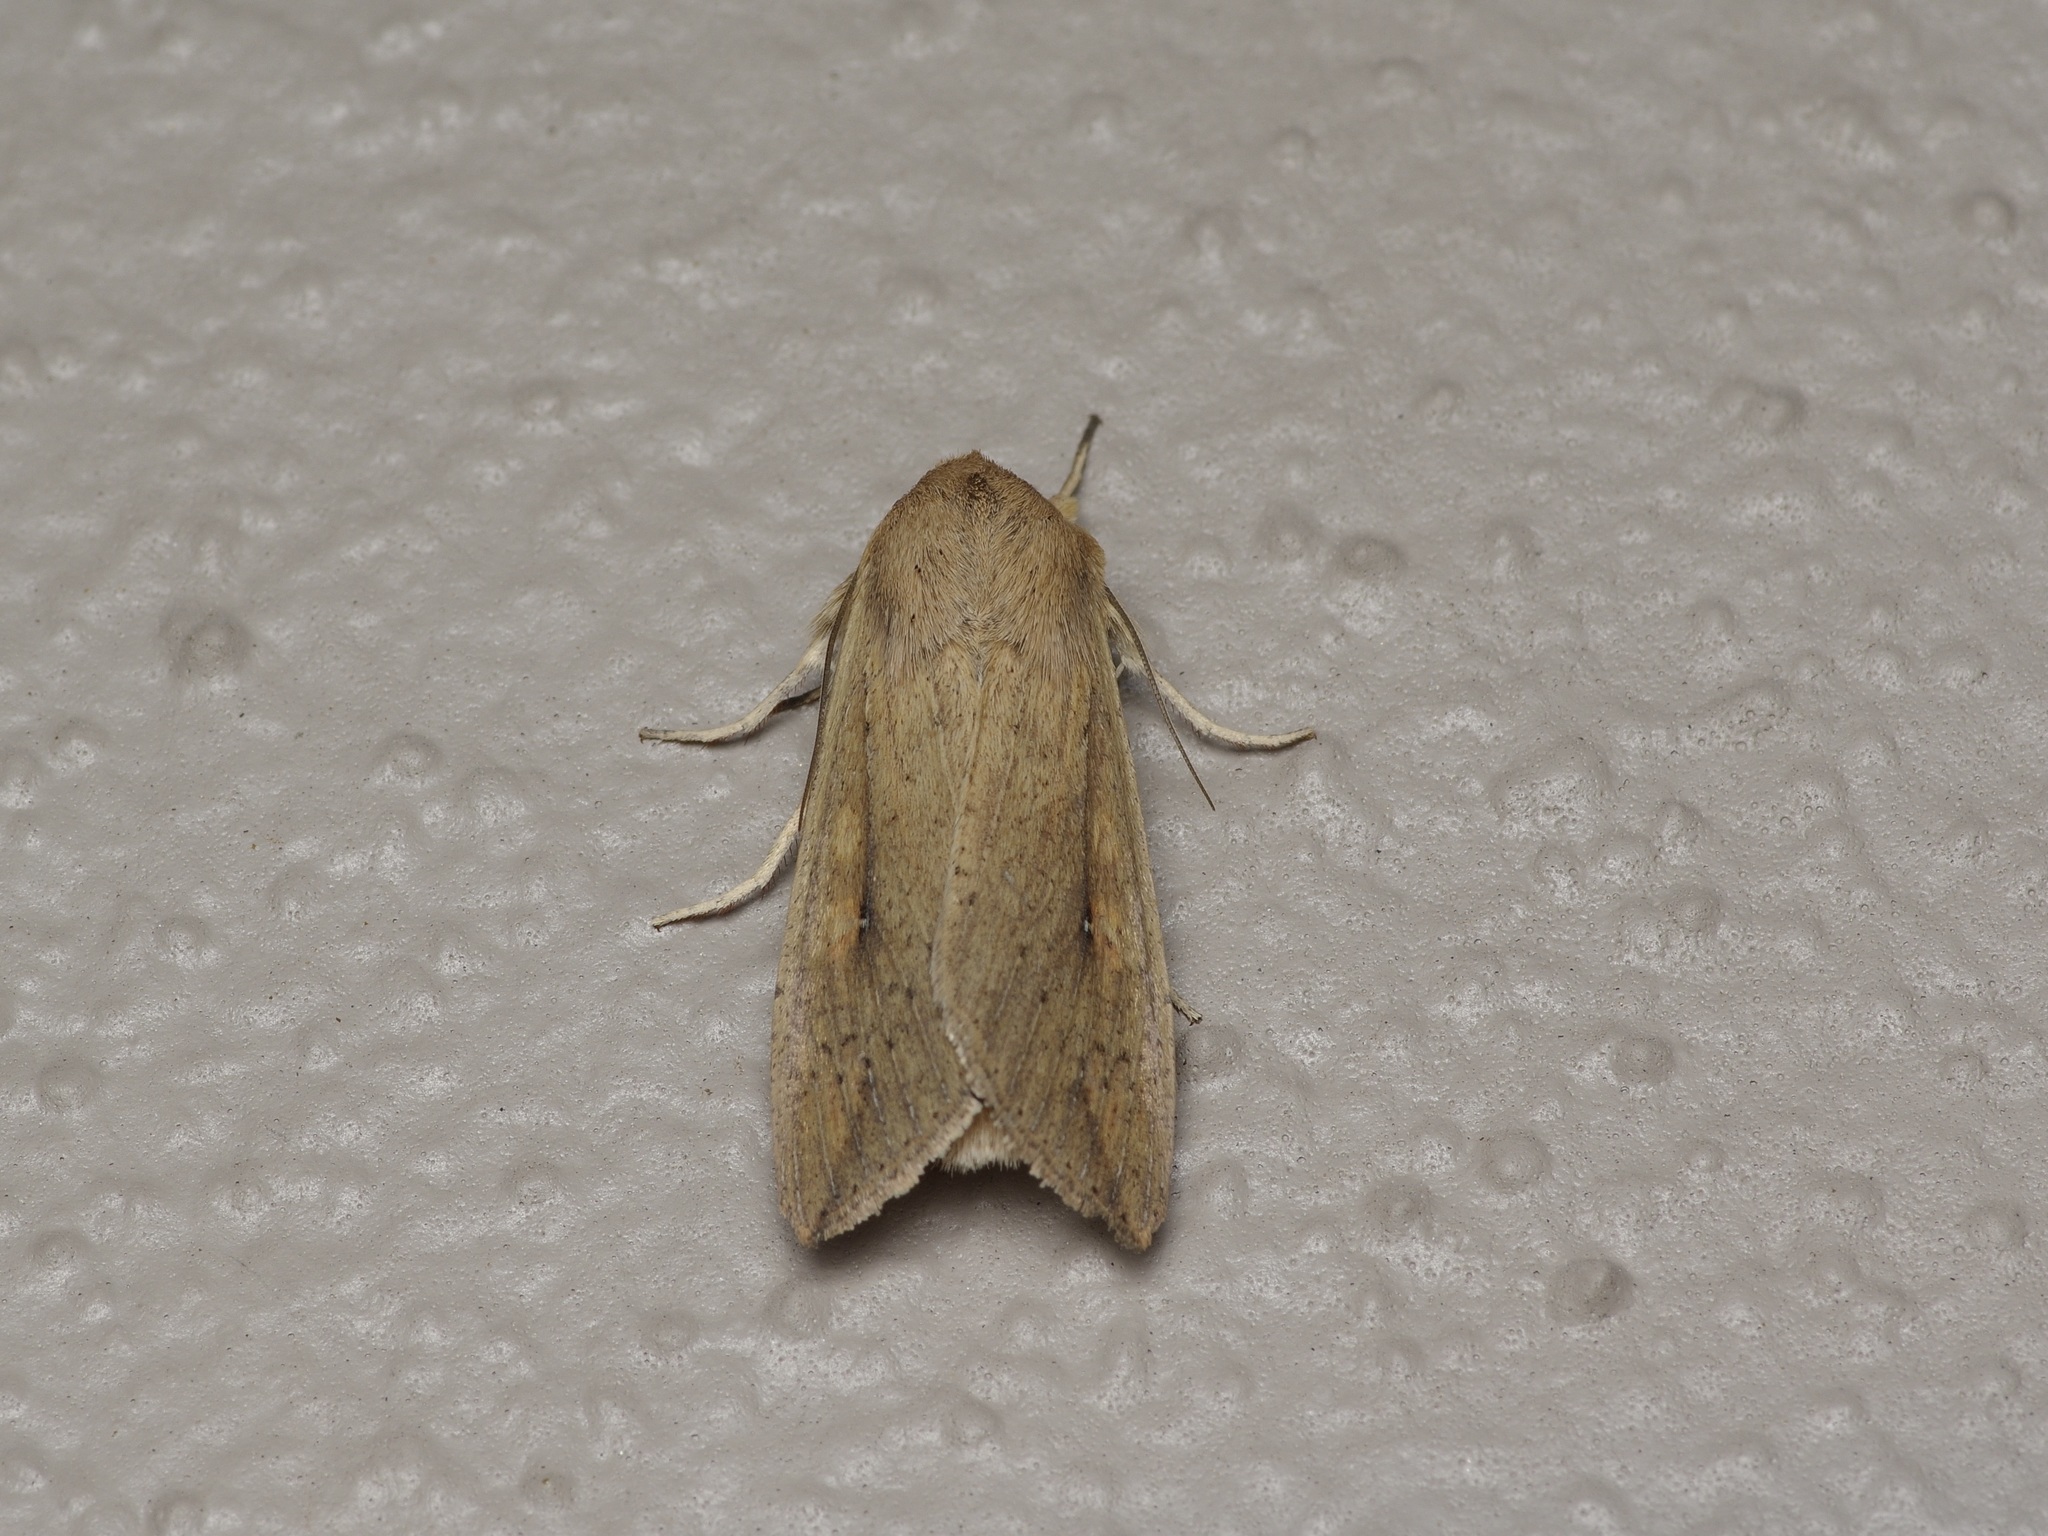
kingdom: Animalia
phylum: Arthropoda
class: Insecta
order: Lepidoptera
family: Noctuidae
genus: Mythimna
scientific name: Mythimna unipuncta
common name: White-speck
